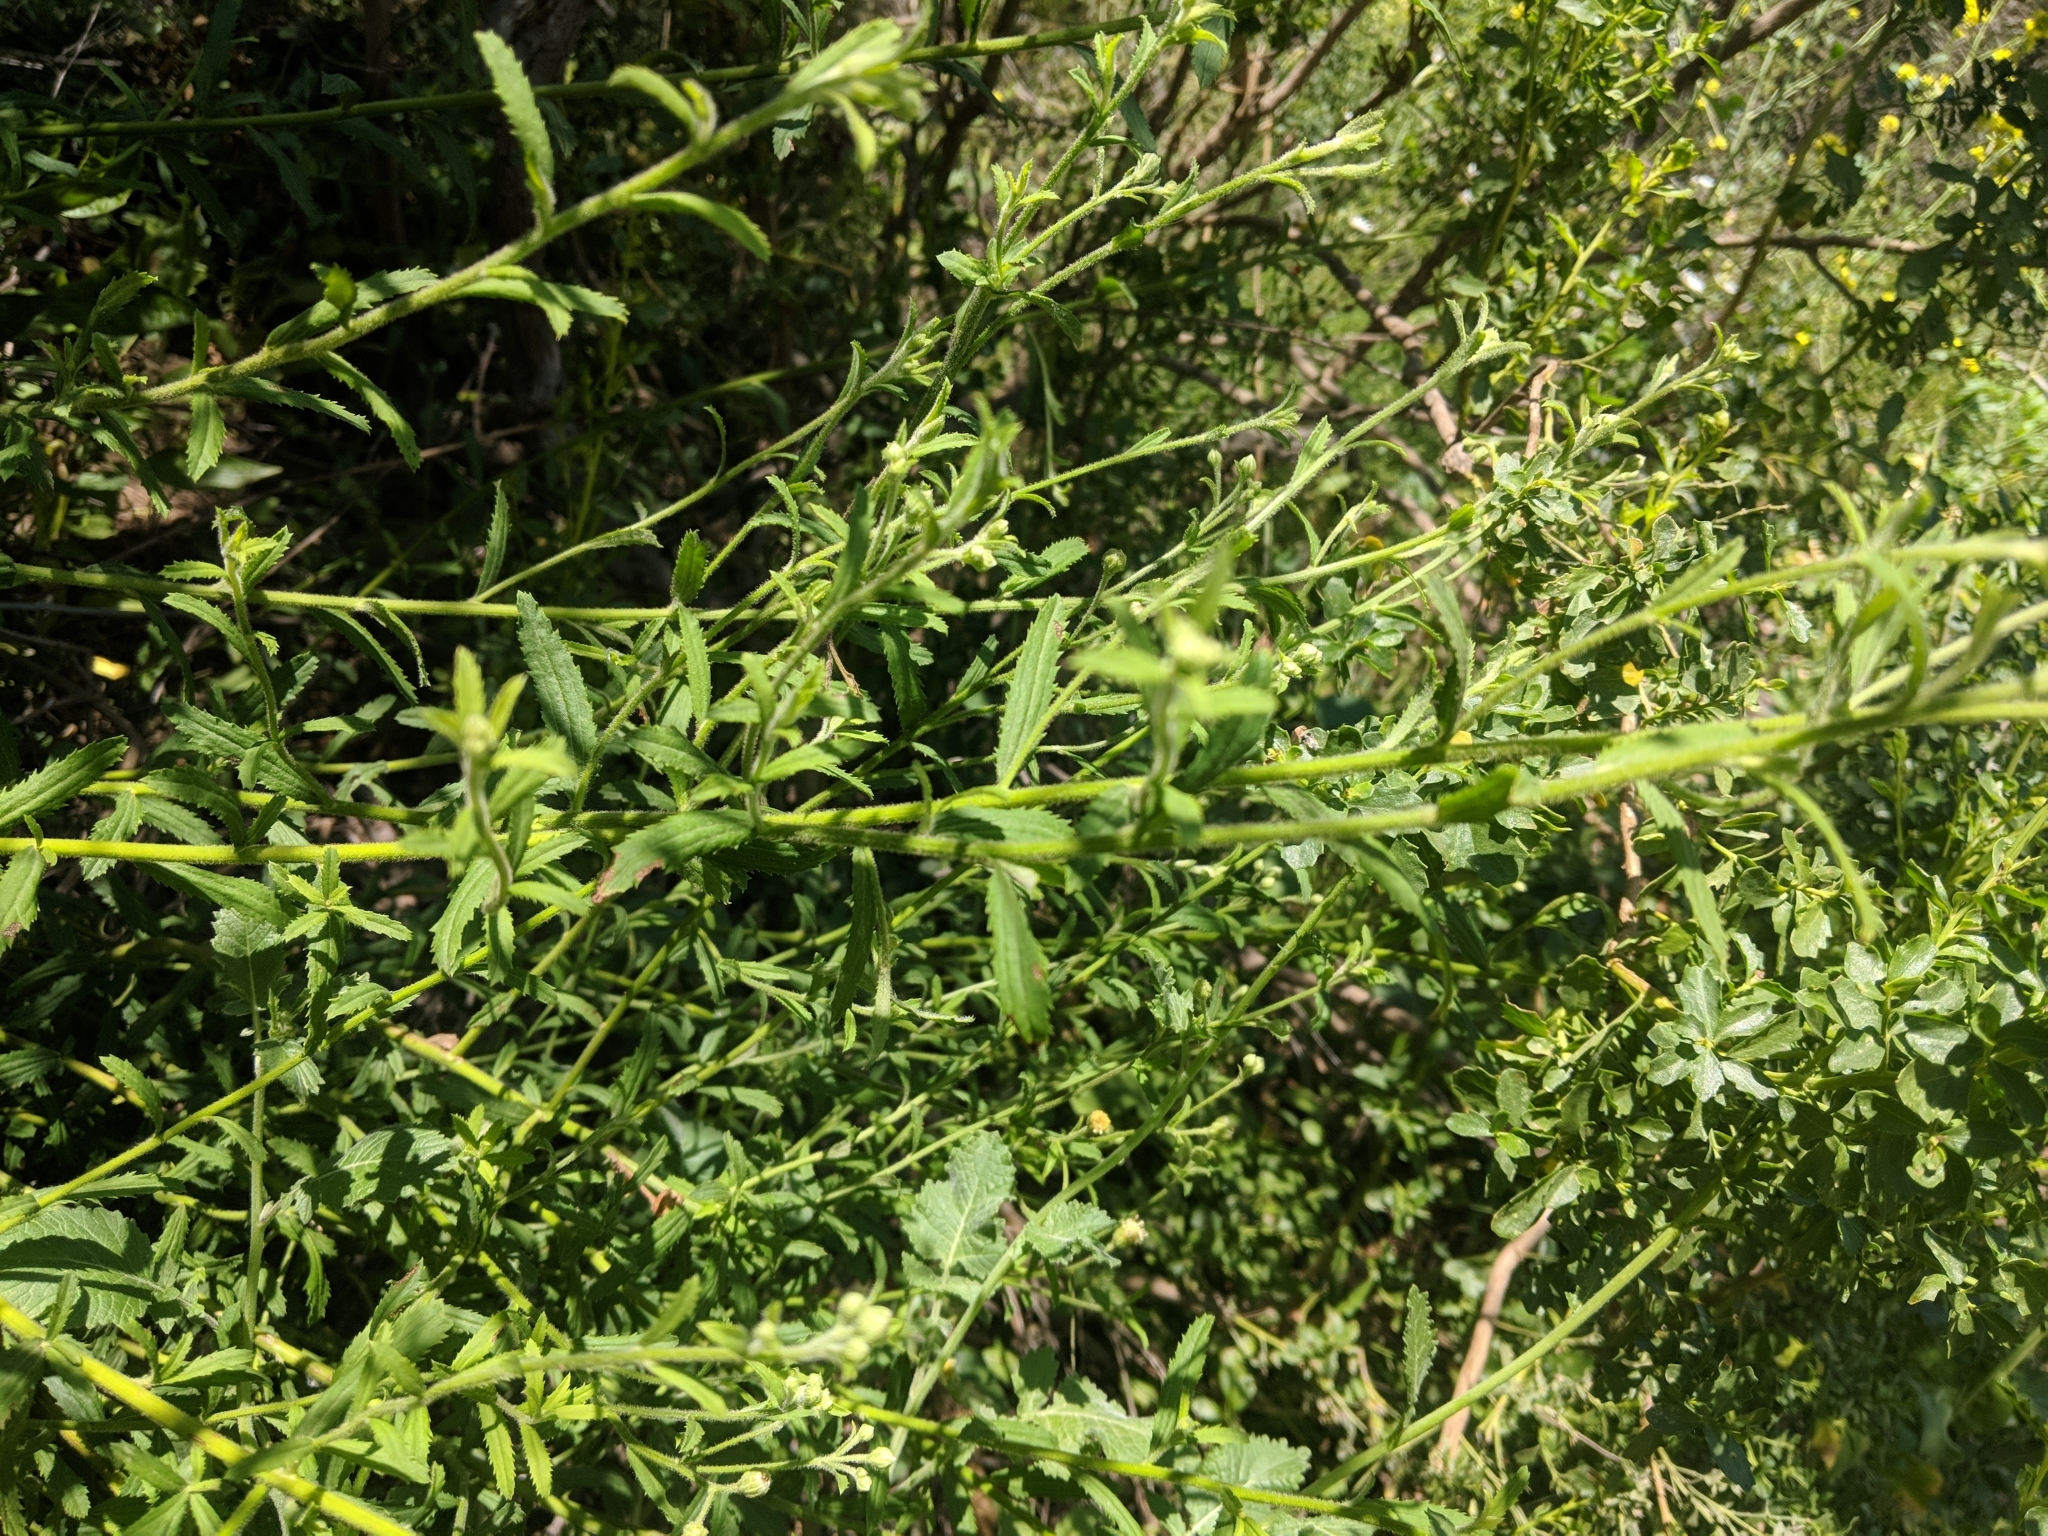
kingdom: Plantae
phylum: Tracheophyta
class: Magnoliopsida
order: Asterales
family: Asteraceae
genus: Baccharis
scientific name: Baccharis plummerae
